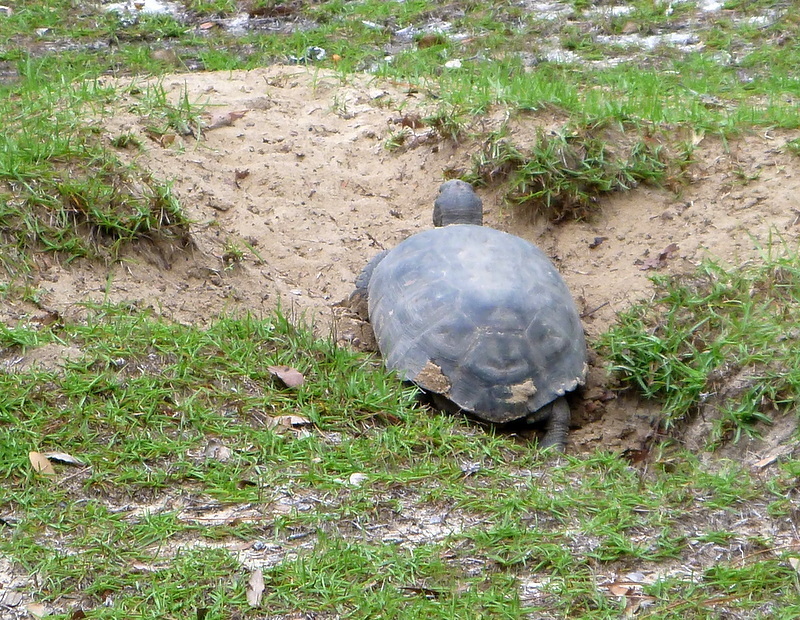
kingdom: Animalia
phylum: Chordata
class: Testudines
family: Testudinidae
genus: Gopherus
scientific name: Gopherus polyphemus
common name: Florida gopher tortoise
